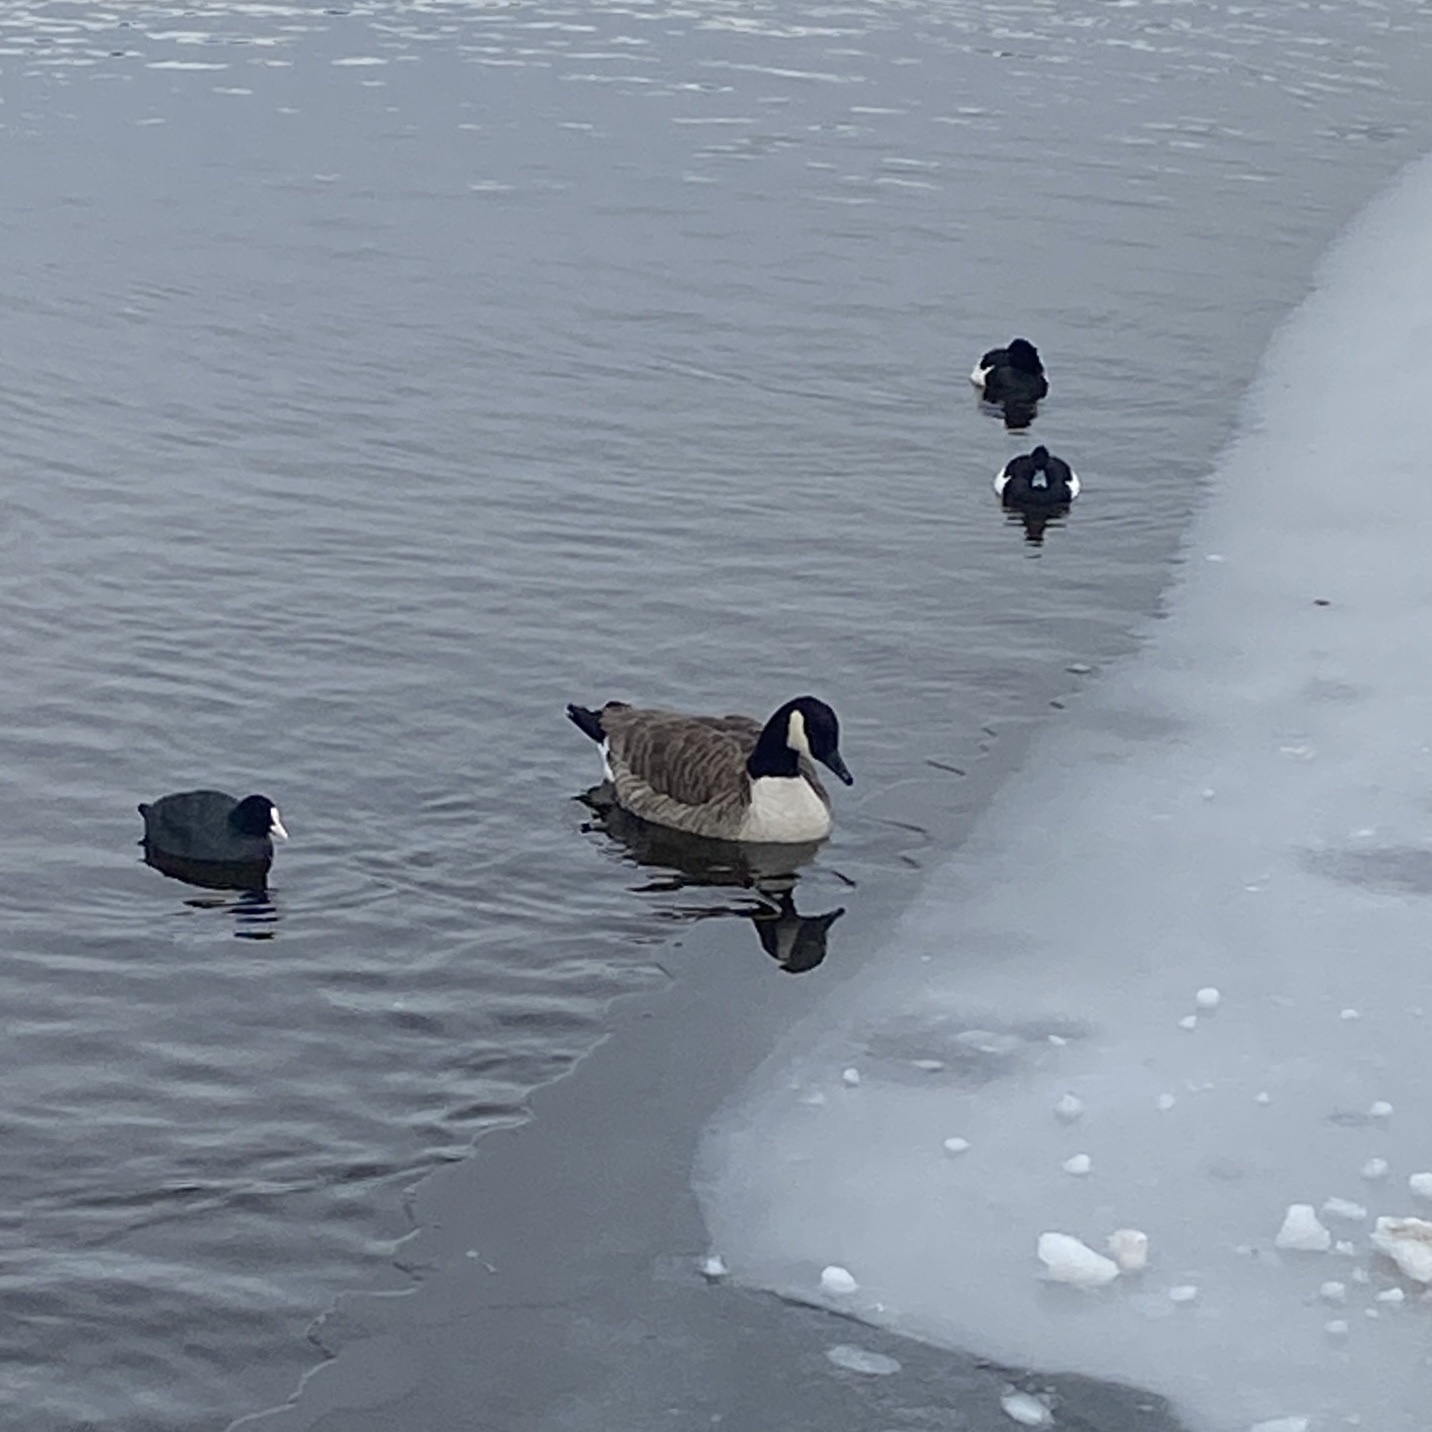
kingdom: Animalia
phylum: Chordata
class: Aves
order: Anseriformes
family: Anatidae
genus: Branta
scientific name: Branta canadensis
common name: Canada goose
